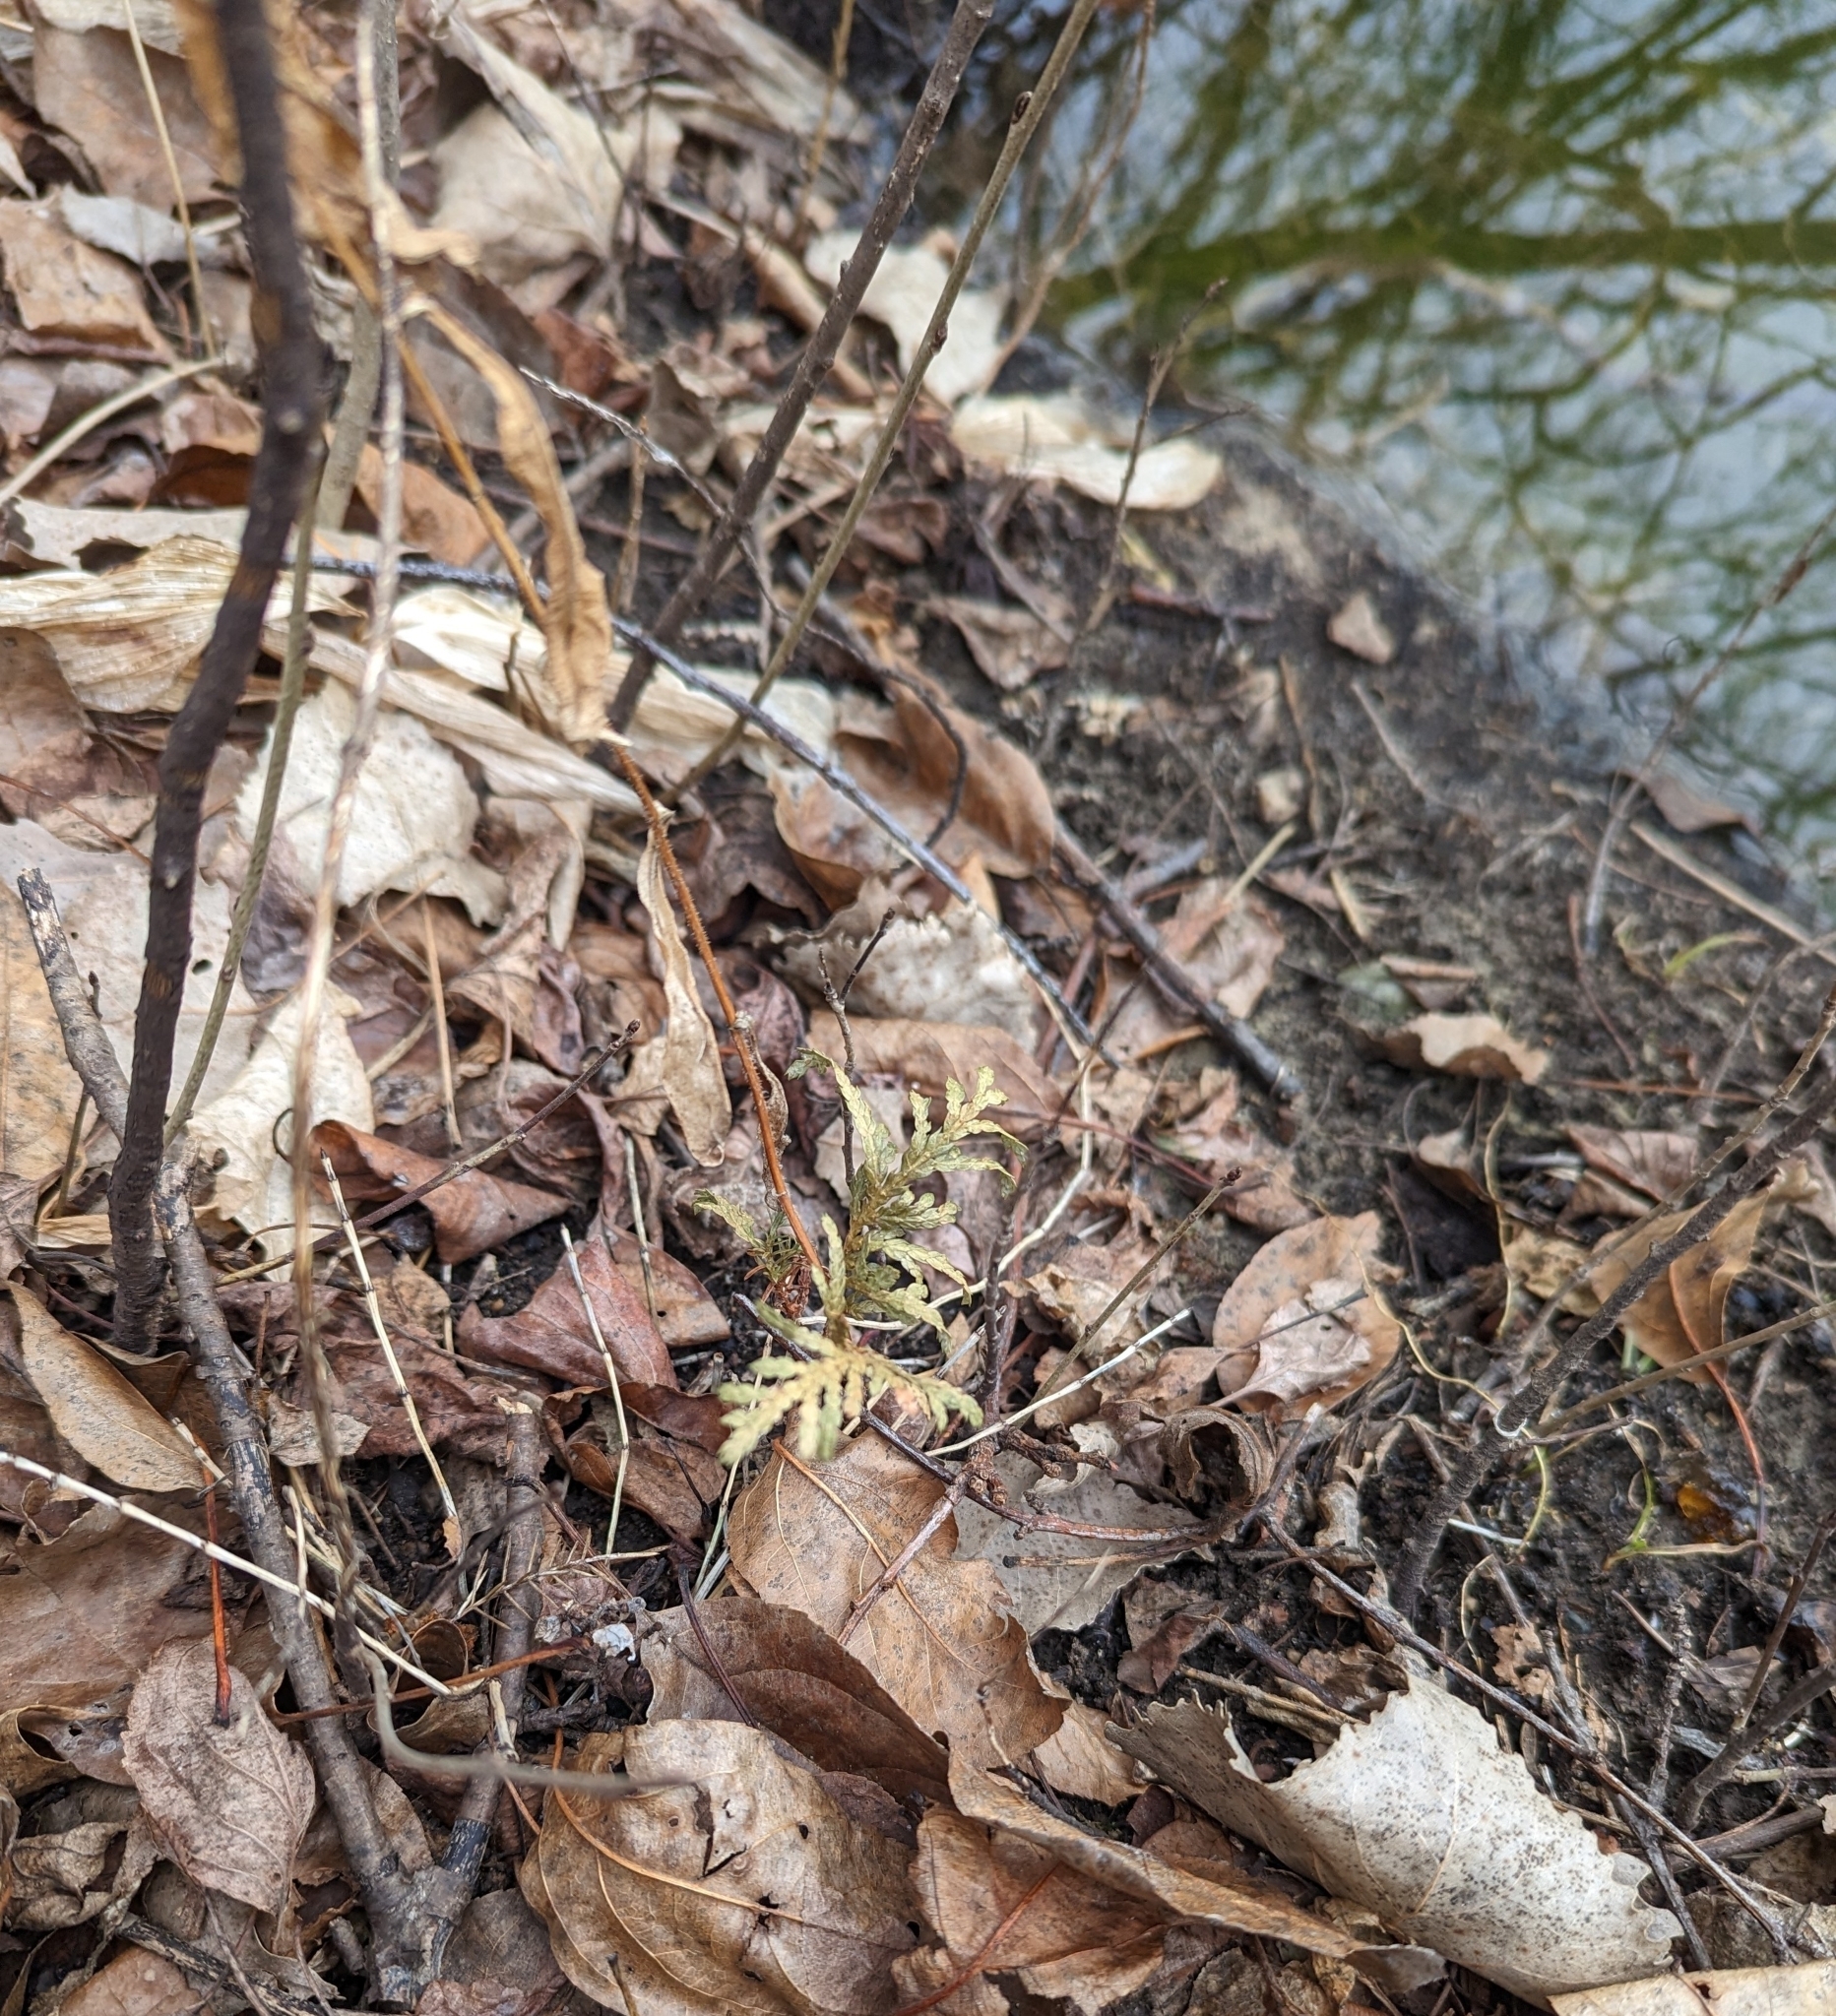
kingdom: Plantae
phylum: Tracheophyta
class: Pinopsida
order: Pinales
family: Cupressaceae
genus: Thuja
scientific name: Thuja occidentalis
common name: Northern white-cedar
